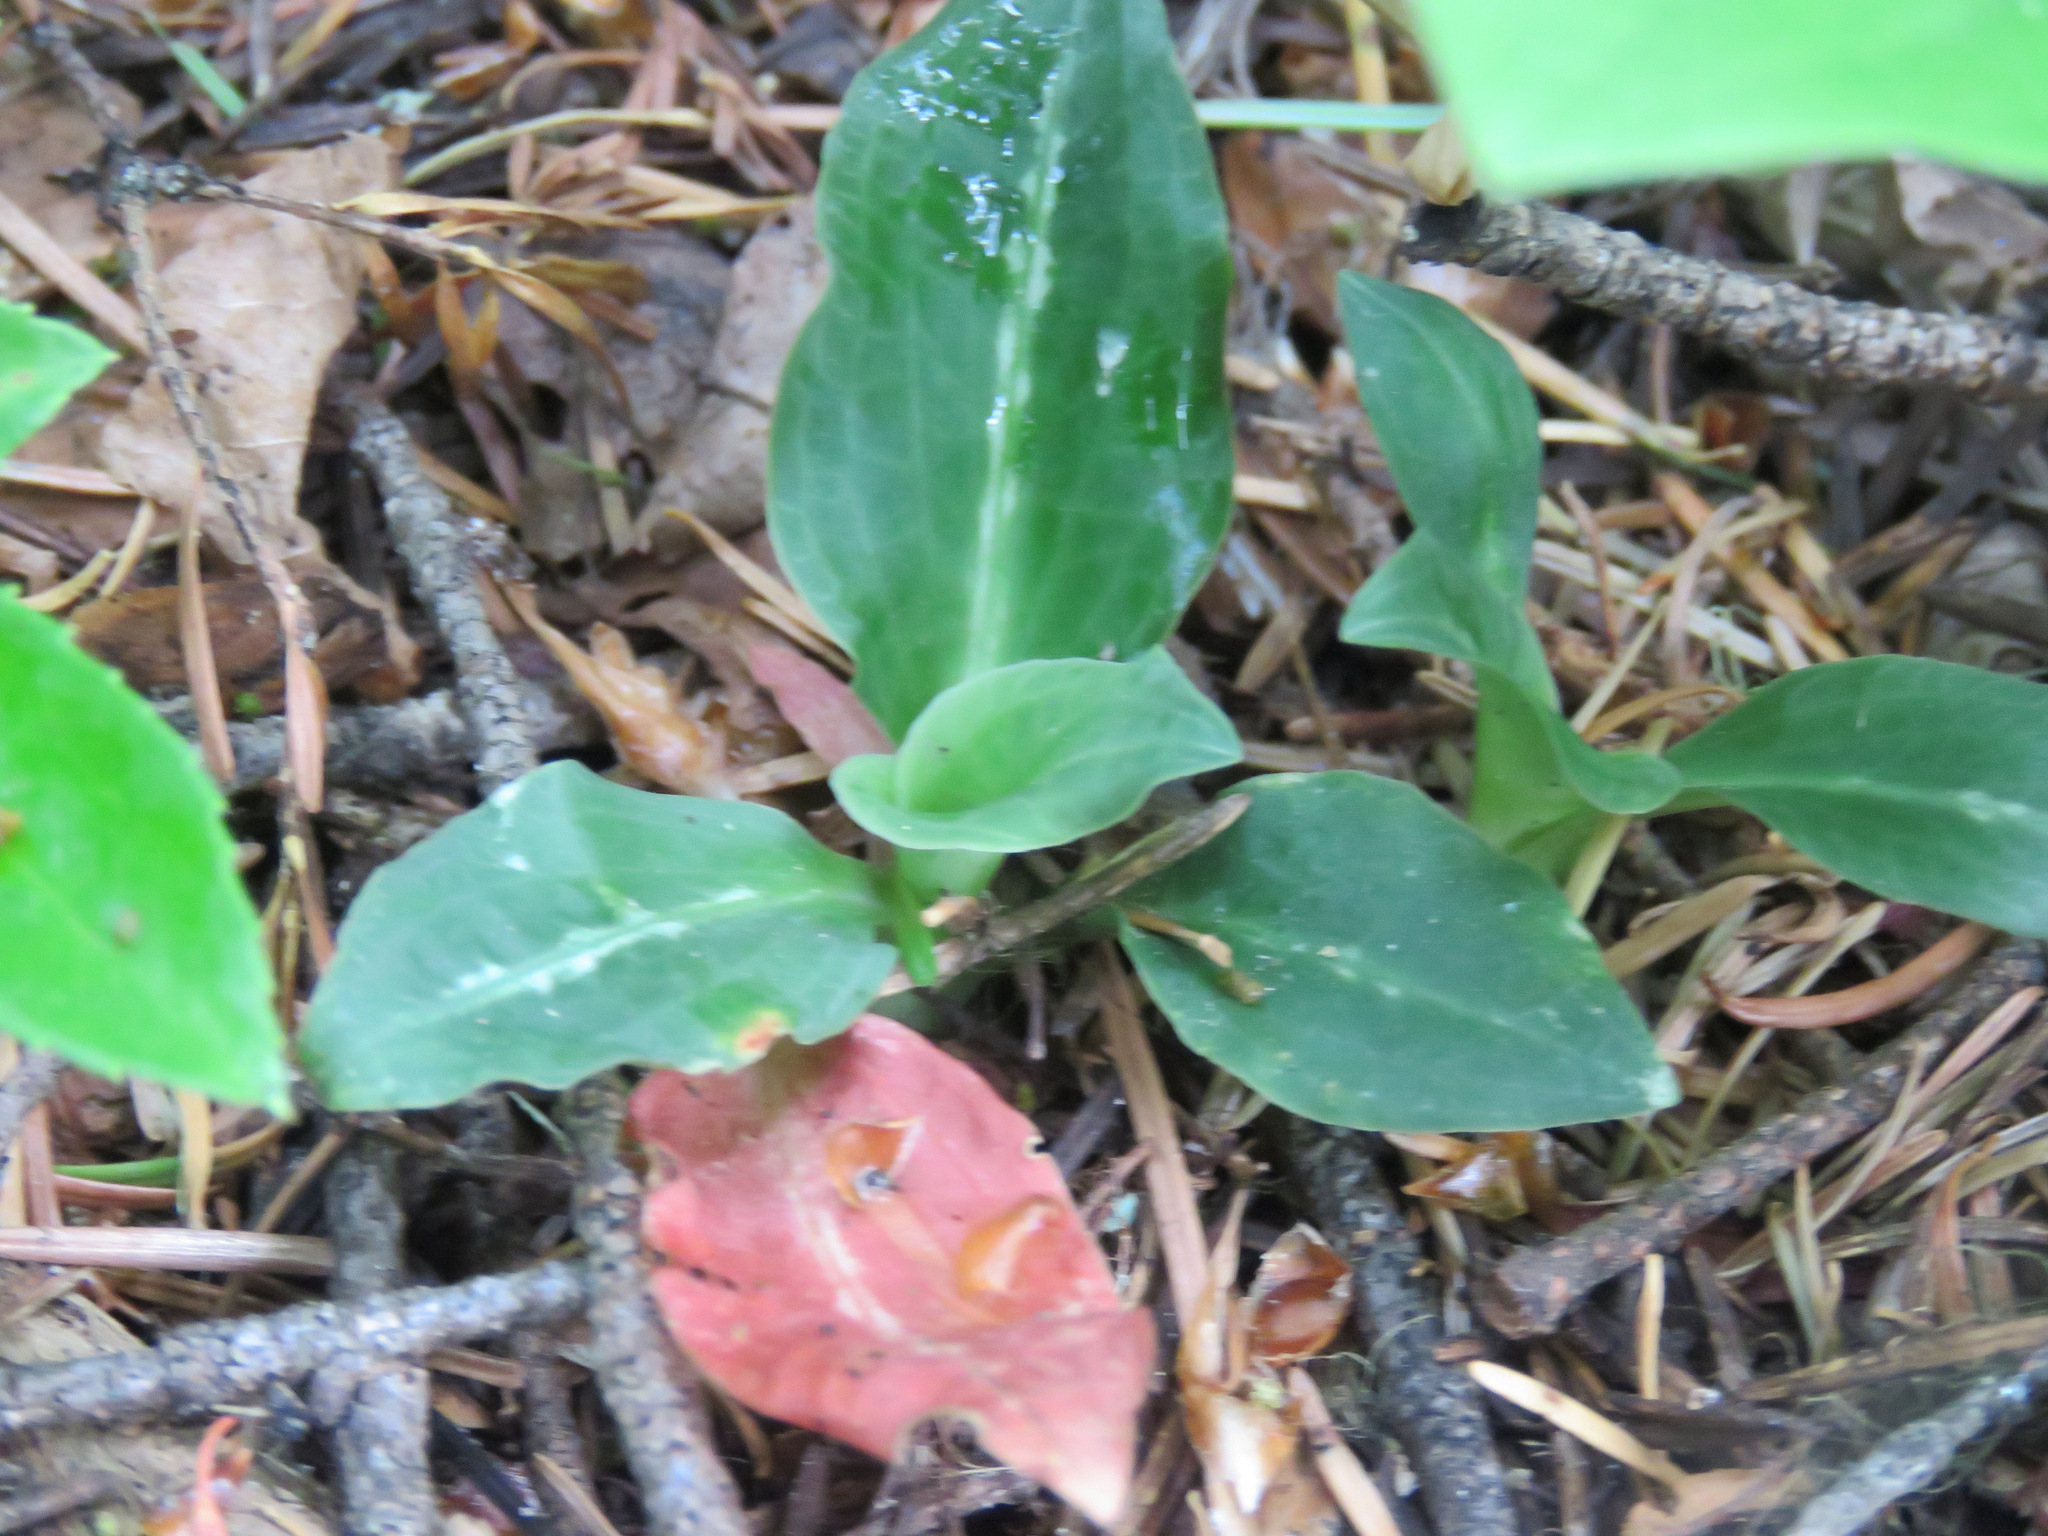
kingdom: Plantae
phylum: Tracheophyta
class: Liliopsida
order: Asparagales
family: Orchidaceae
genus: Goodyera
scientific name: Goodyera oblongifolia
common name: Giant rattlesnake-plantain
